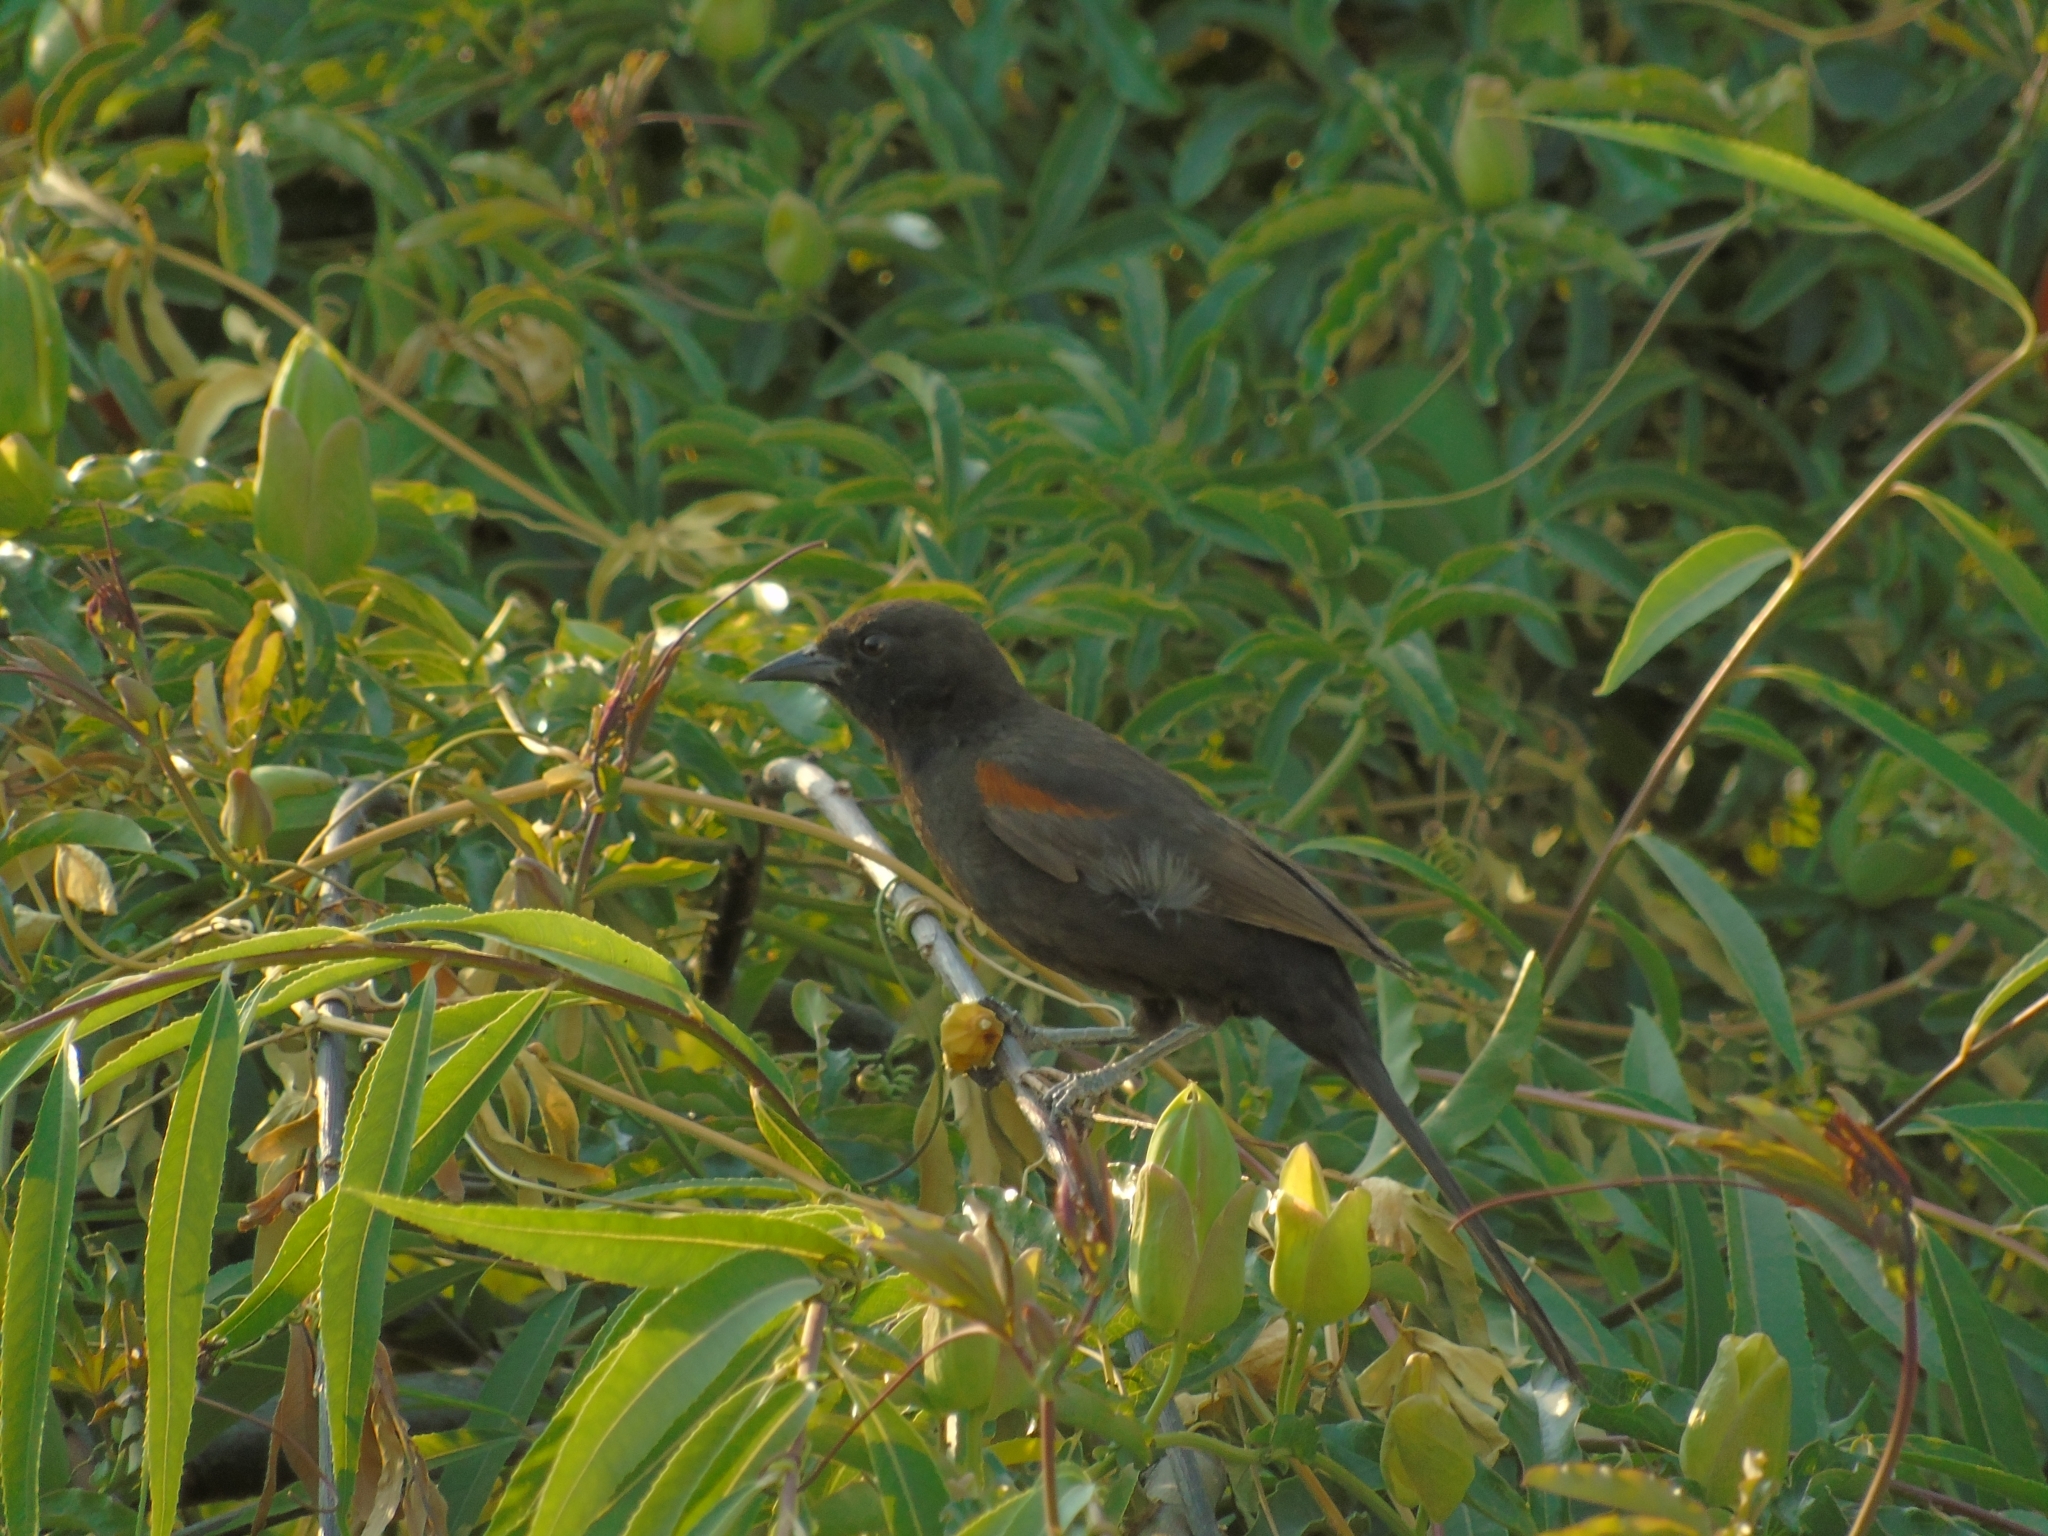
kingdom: Animalia
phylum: Chordata
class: Aves
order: Passeriformes
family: Icteridae
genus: Icterus
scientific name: Icterus cayanensis
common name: Epaulet oriole
